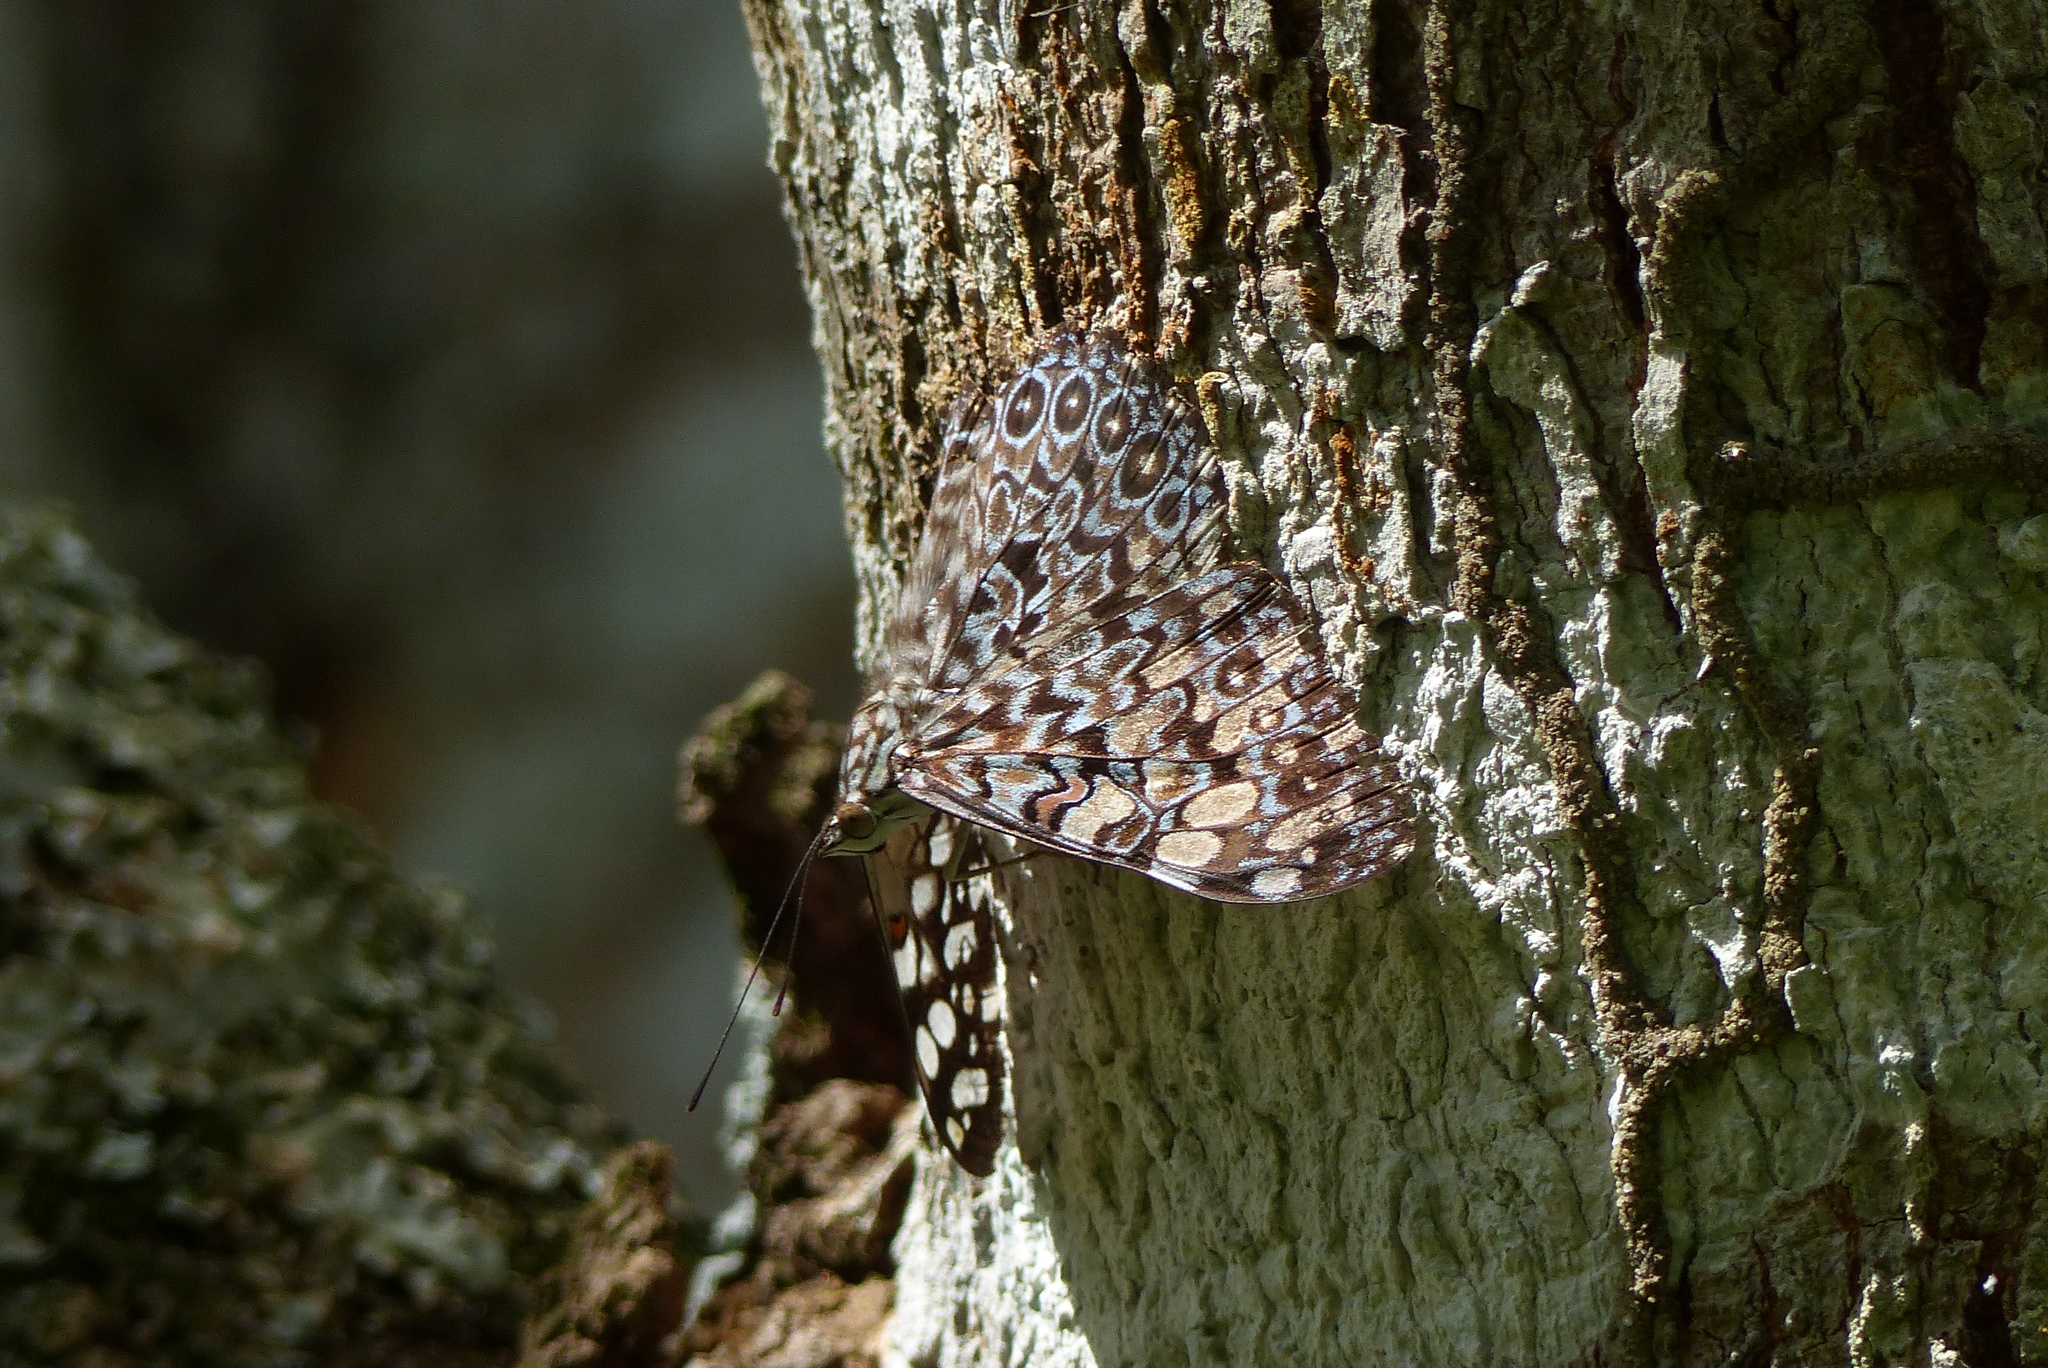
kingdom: Animalia
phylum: Arthropoda
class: Insecta
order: Lepidoptera
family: Nymphalidae
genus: Hamadryas
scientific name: Hamadryas feronia
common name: Variable cracker
